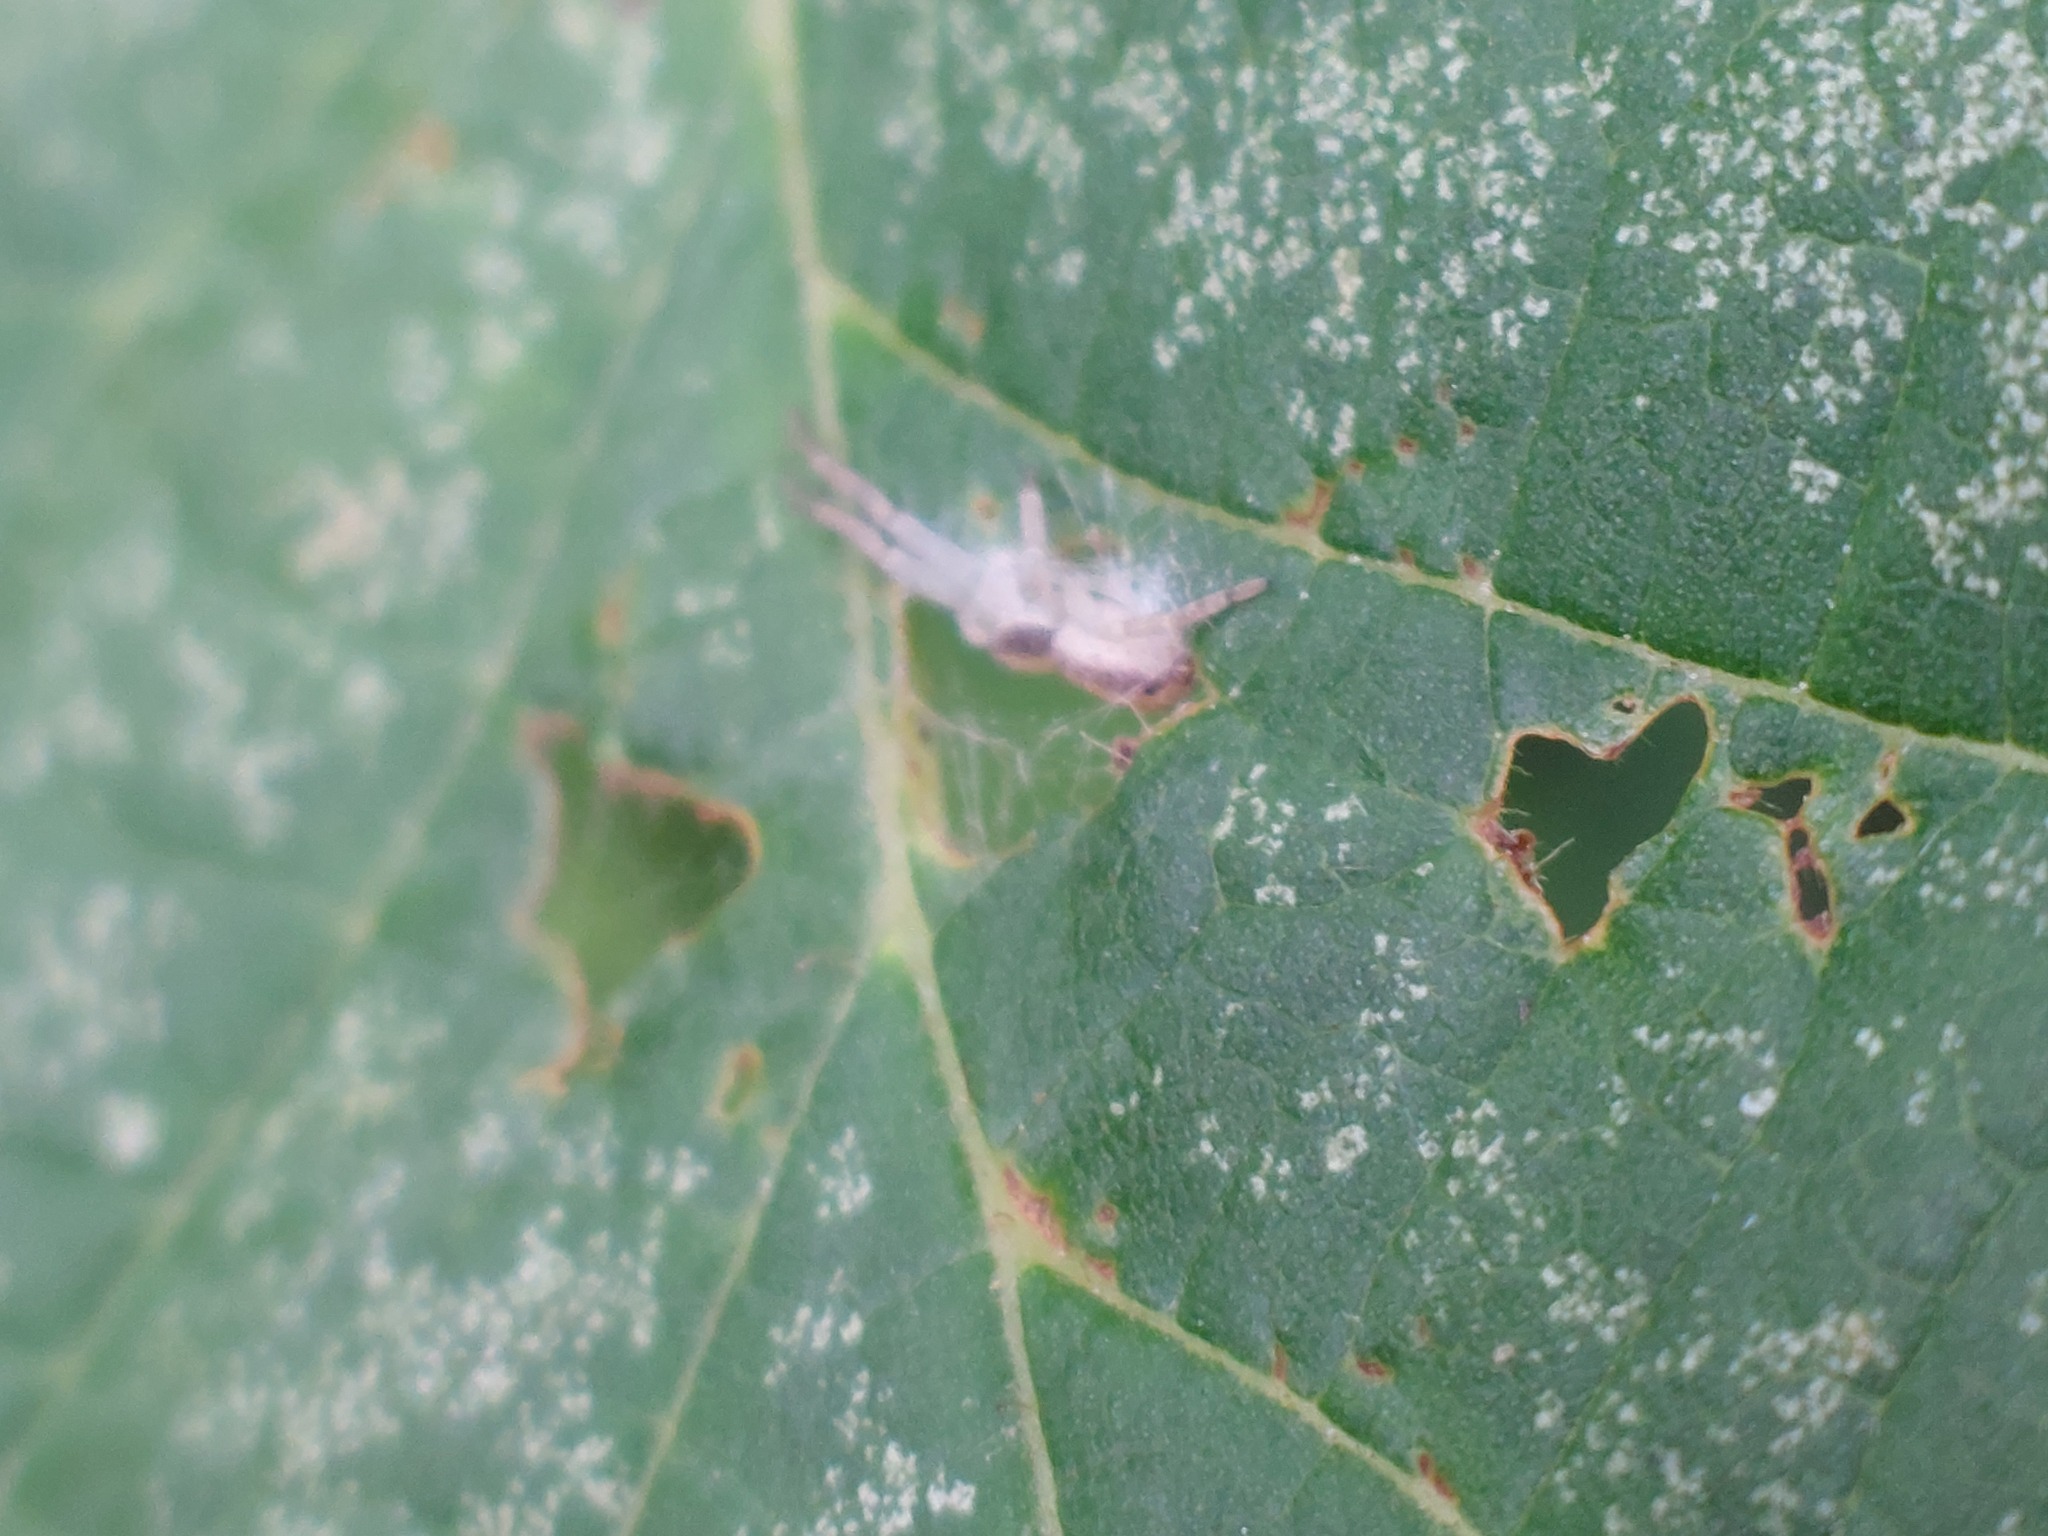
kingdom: Animalia
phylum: Arthropoda
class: Arachnida
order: Araneae
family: Philodromidae
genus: Philodromus
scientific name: Philodromus
